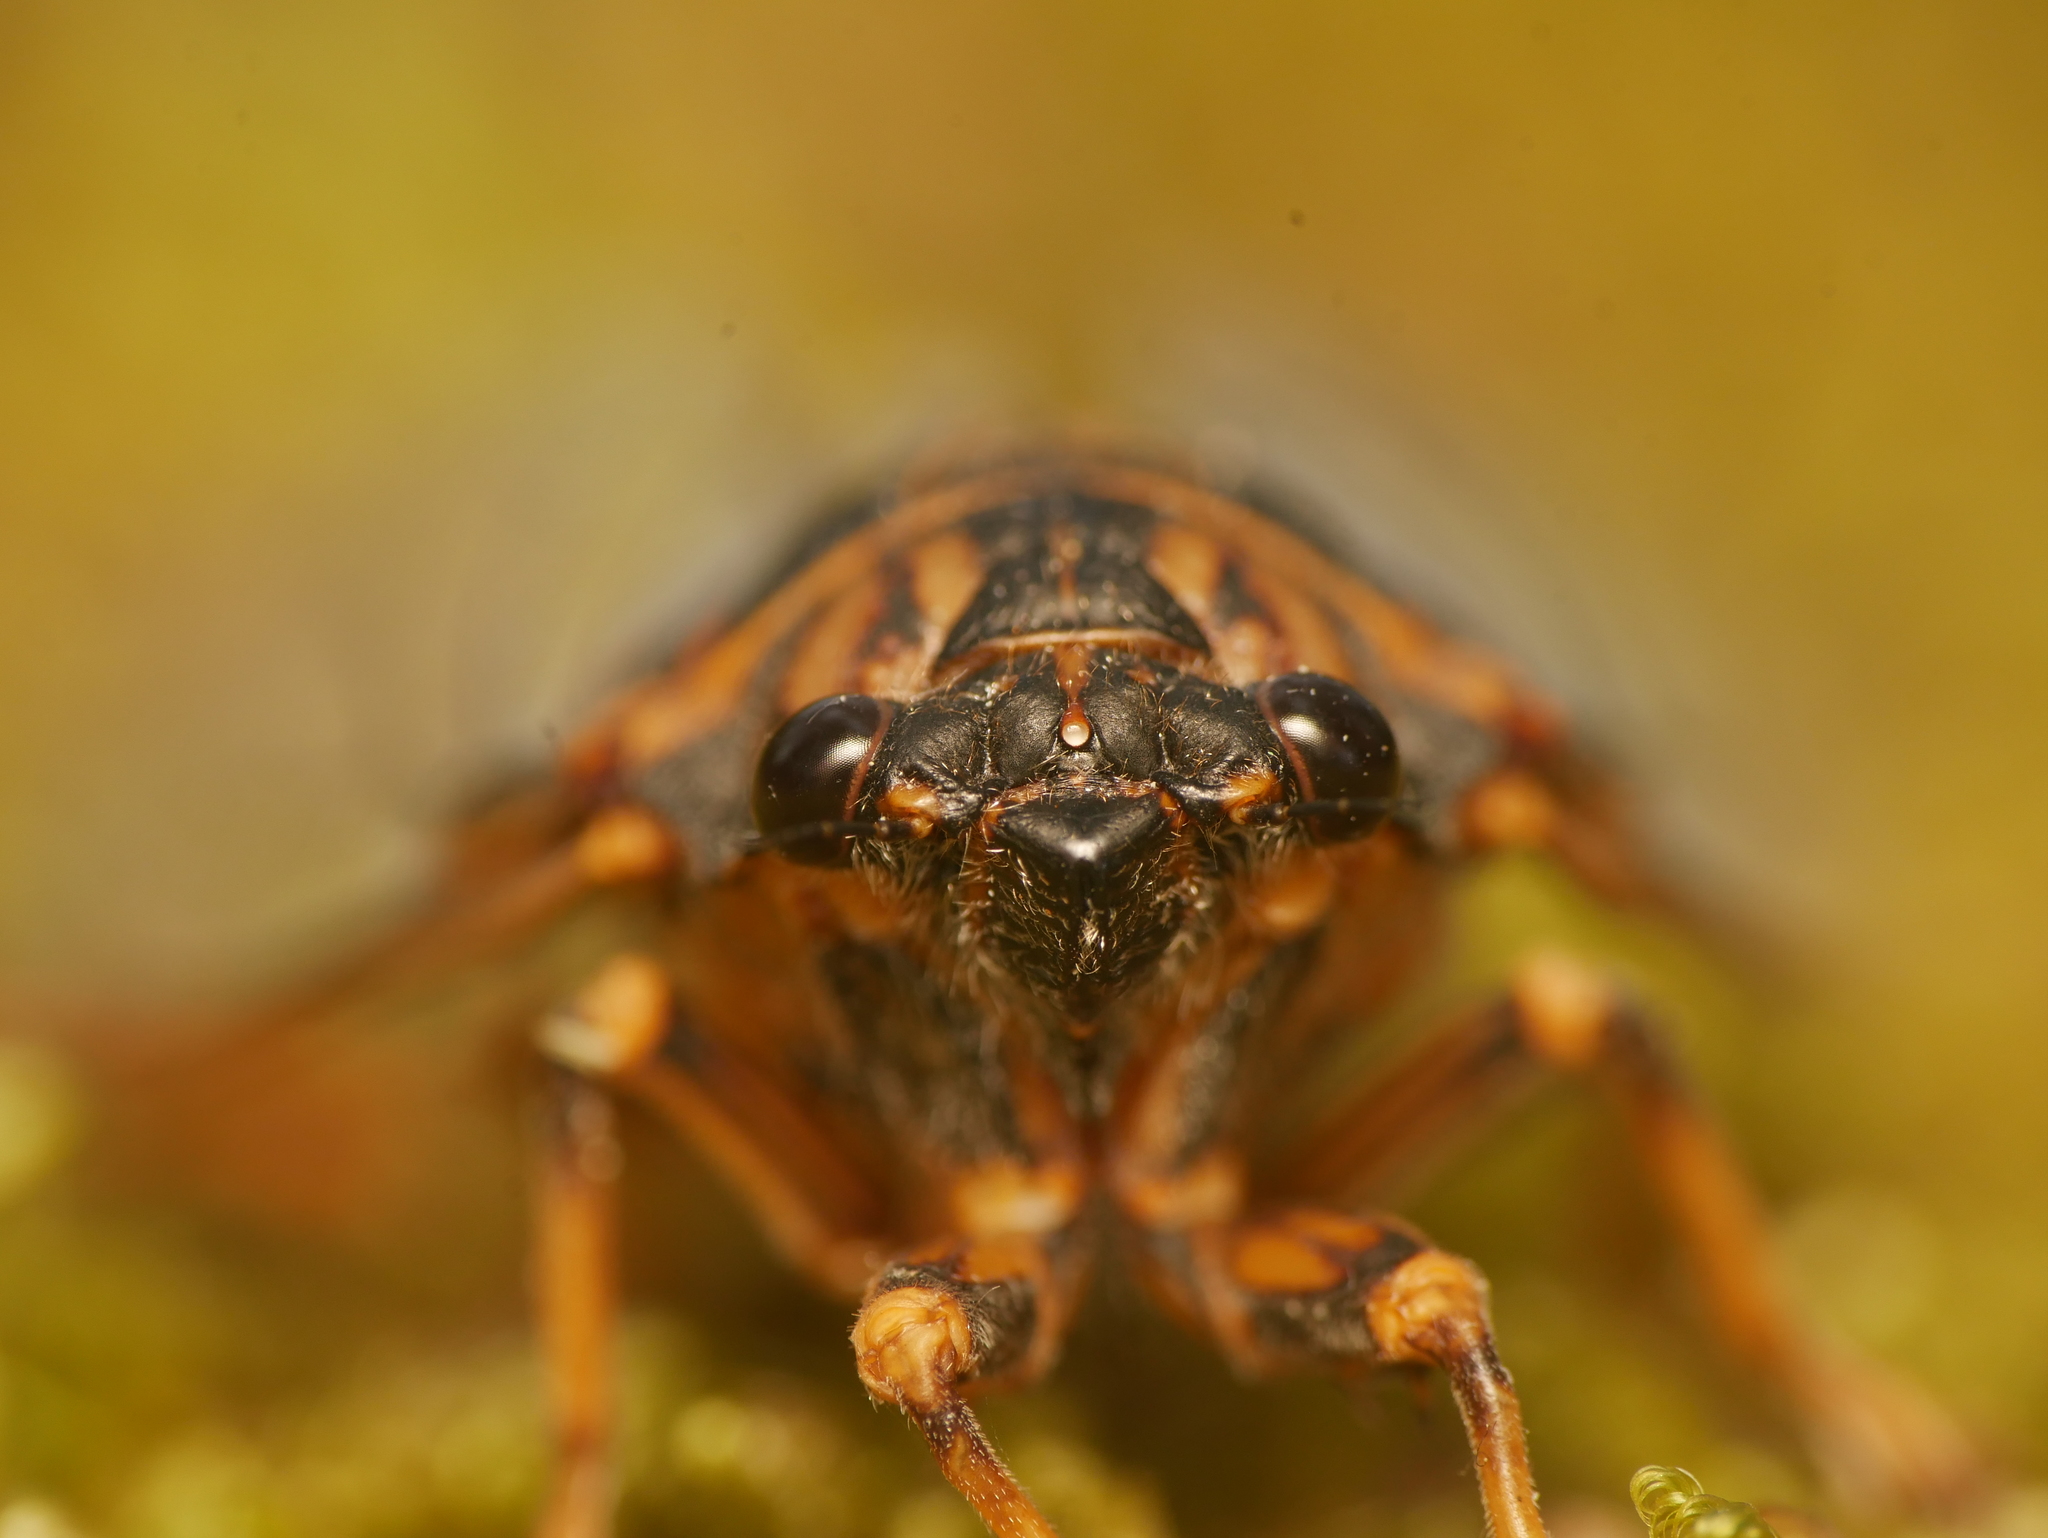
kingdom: Animalia
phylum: Arthropoda
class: Insecta
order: Hemiptera
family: Cicadidae
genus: Okanagana
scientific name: Okanagana rimosa
